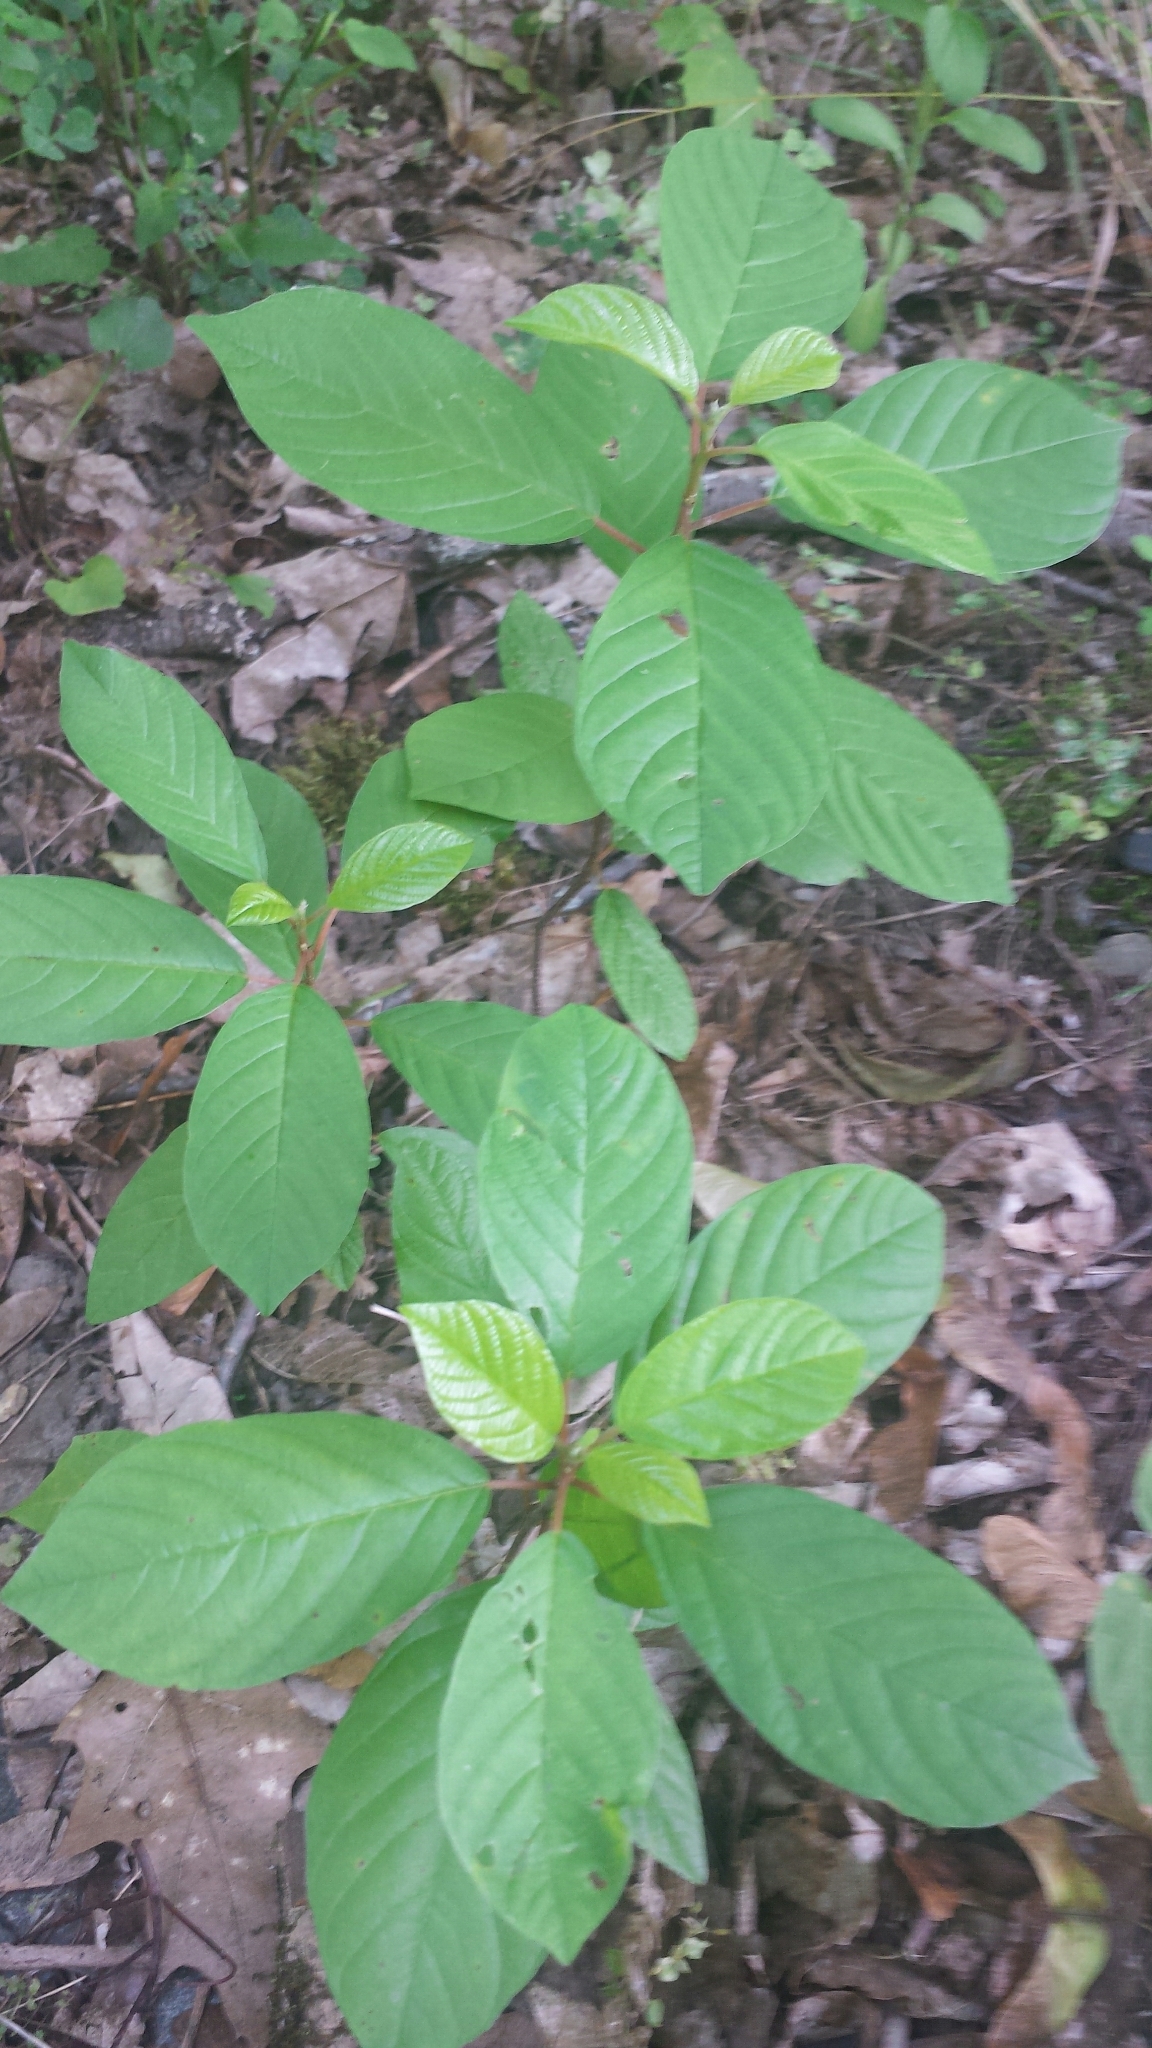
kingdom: Plantae
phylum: Tracheophyta
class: Magnoliopsida
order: Rosales
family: Rhamnaceae
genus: Frangula
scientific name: Frangula alnus
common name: Alder buckthorn
